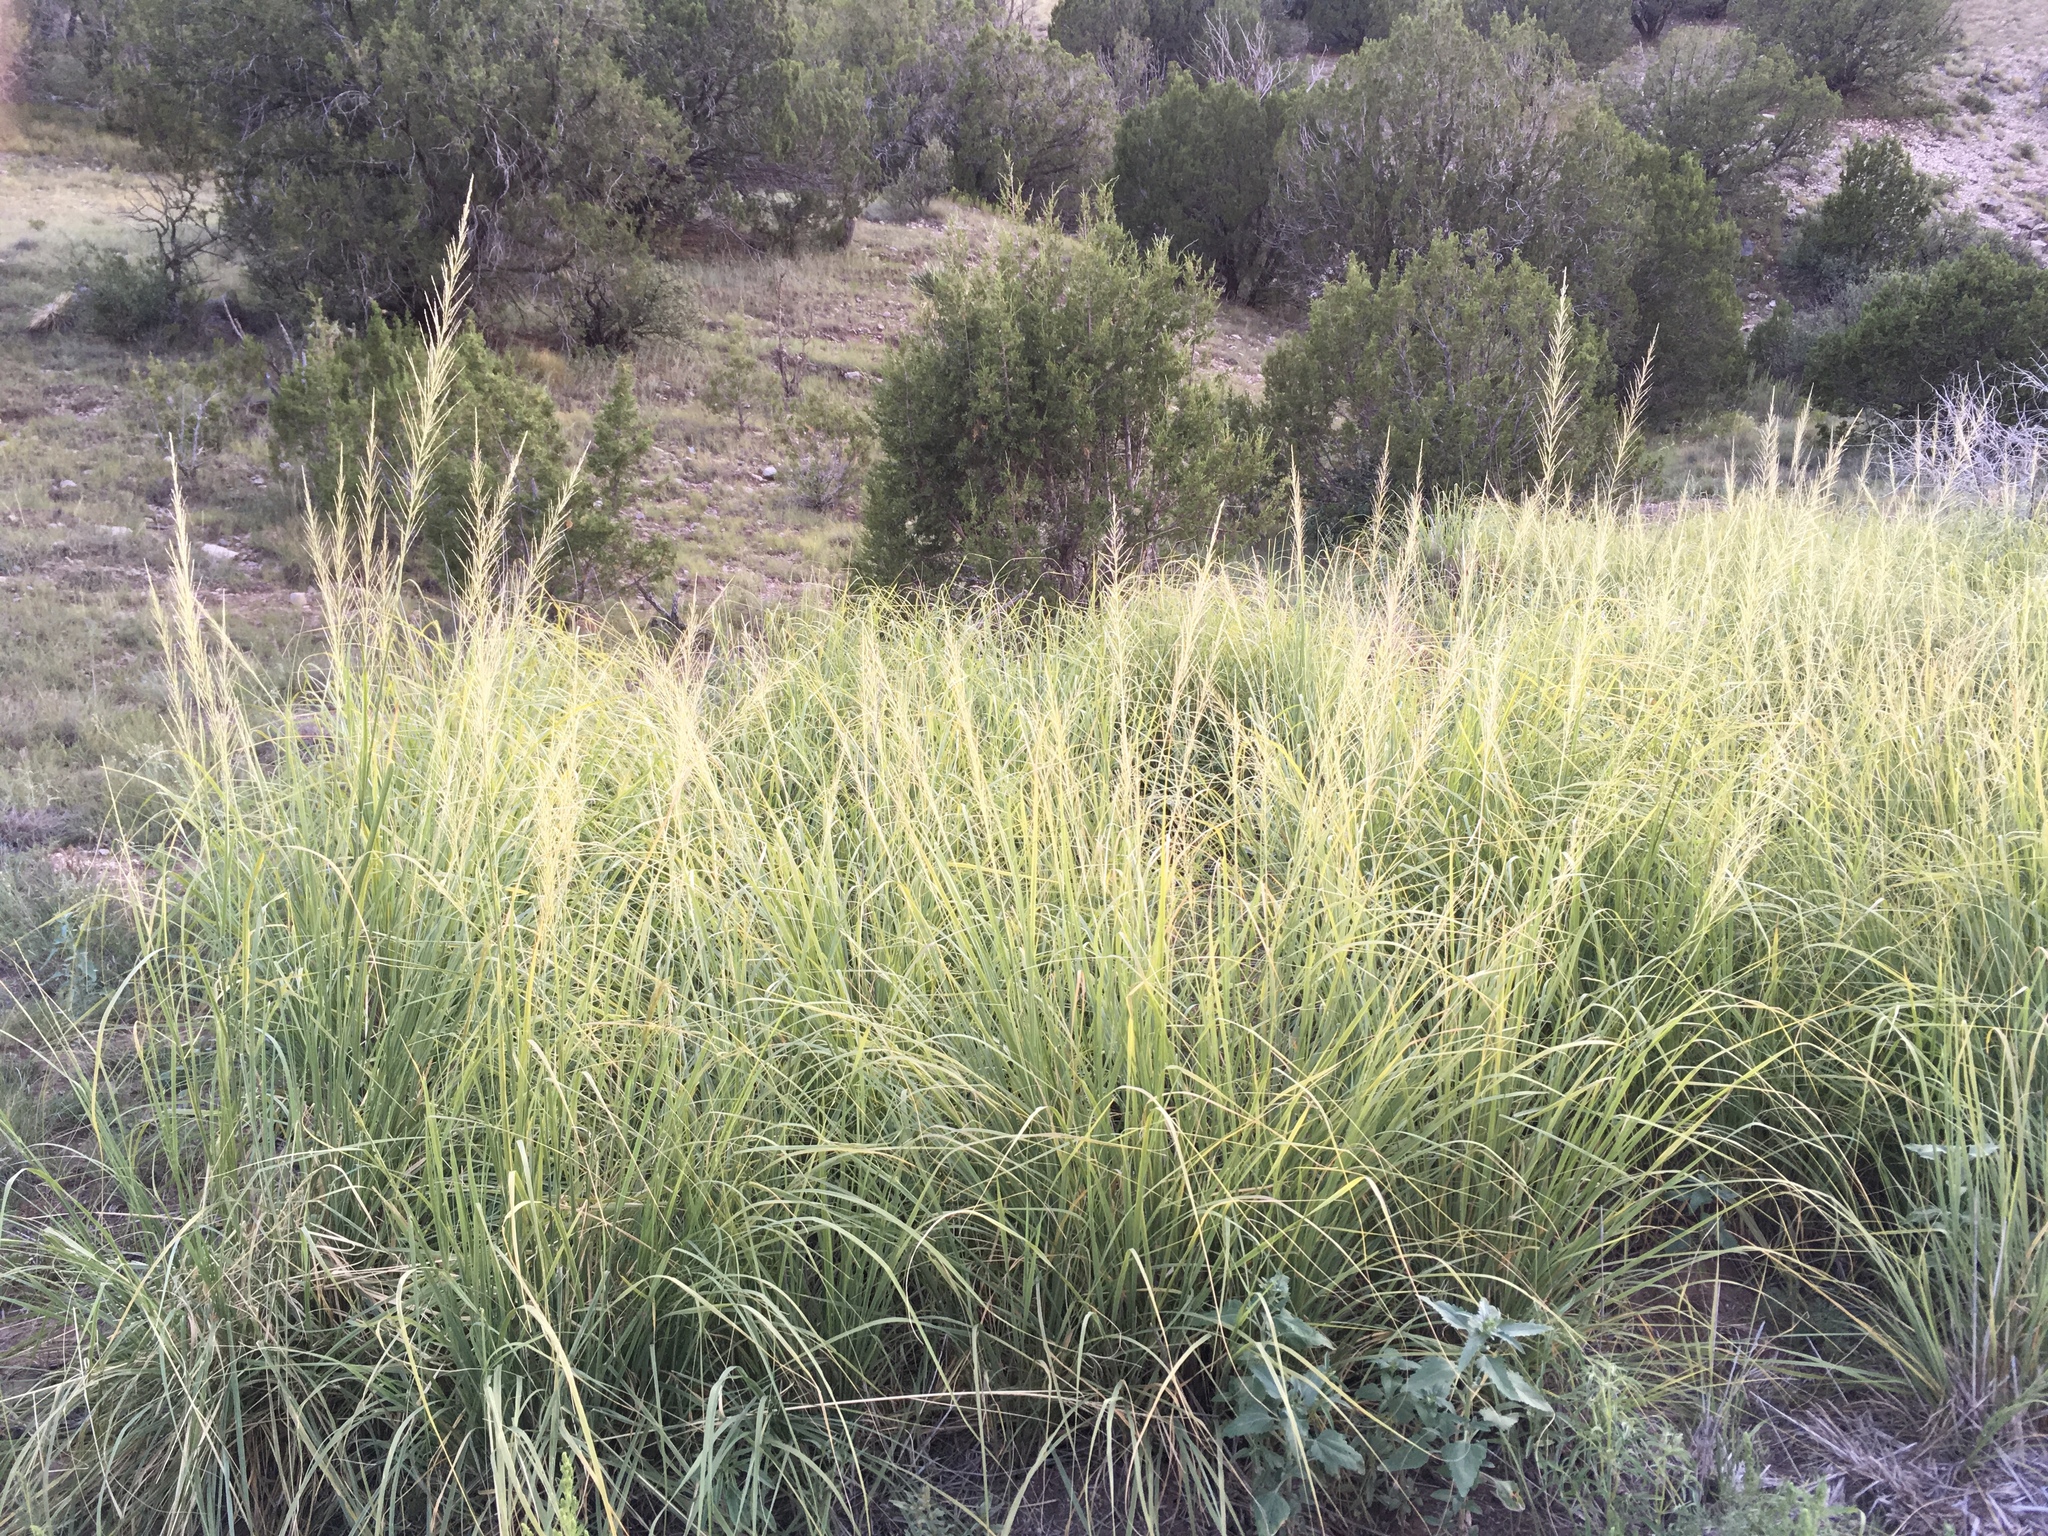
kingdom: Plantae
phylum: Tracheophyta
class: Liliopsida
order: Poales
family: Poaceae
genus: Sporobolus
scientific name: Sporobolus wrightii
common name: Big alkali sacaton
